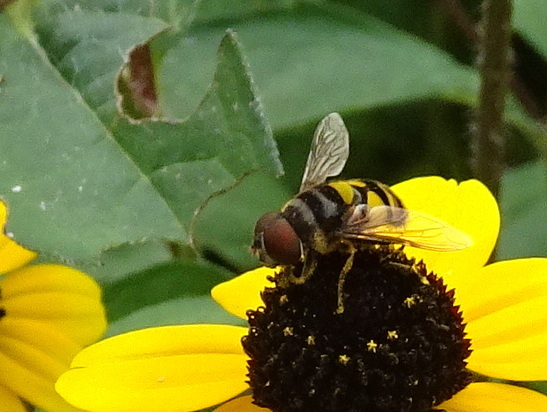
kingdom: Animalia
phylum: Arthropoda
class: Insecta
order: Diptera
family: Syrphidae
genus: Eristalis
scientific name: Eristalis transversa
